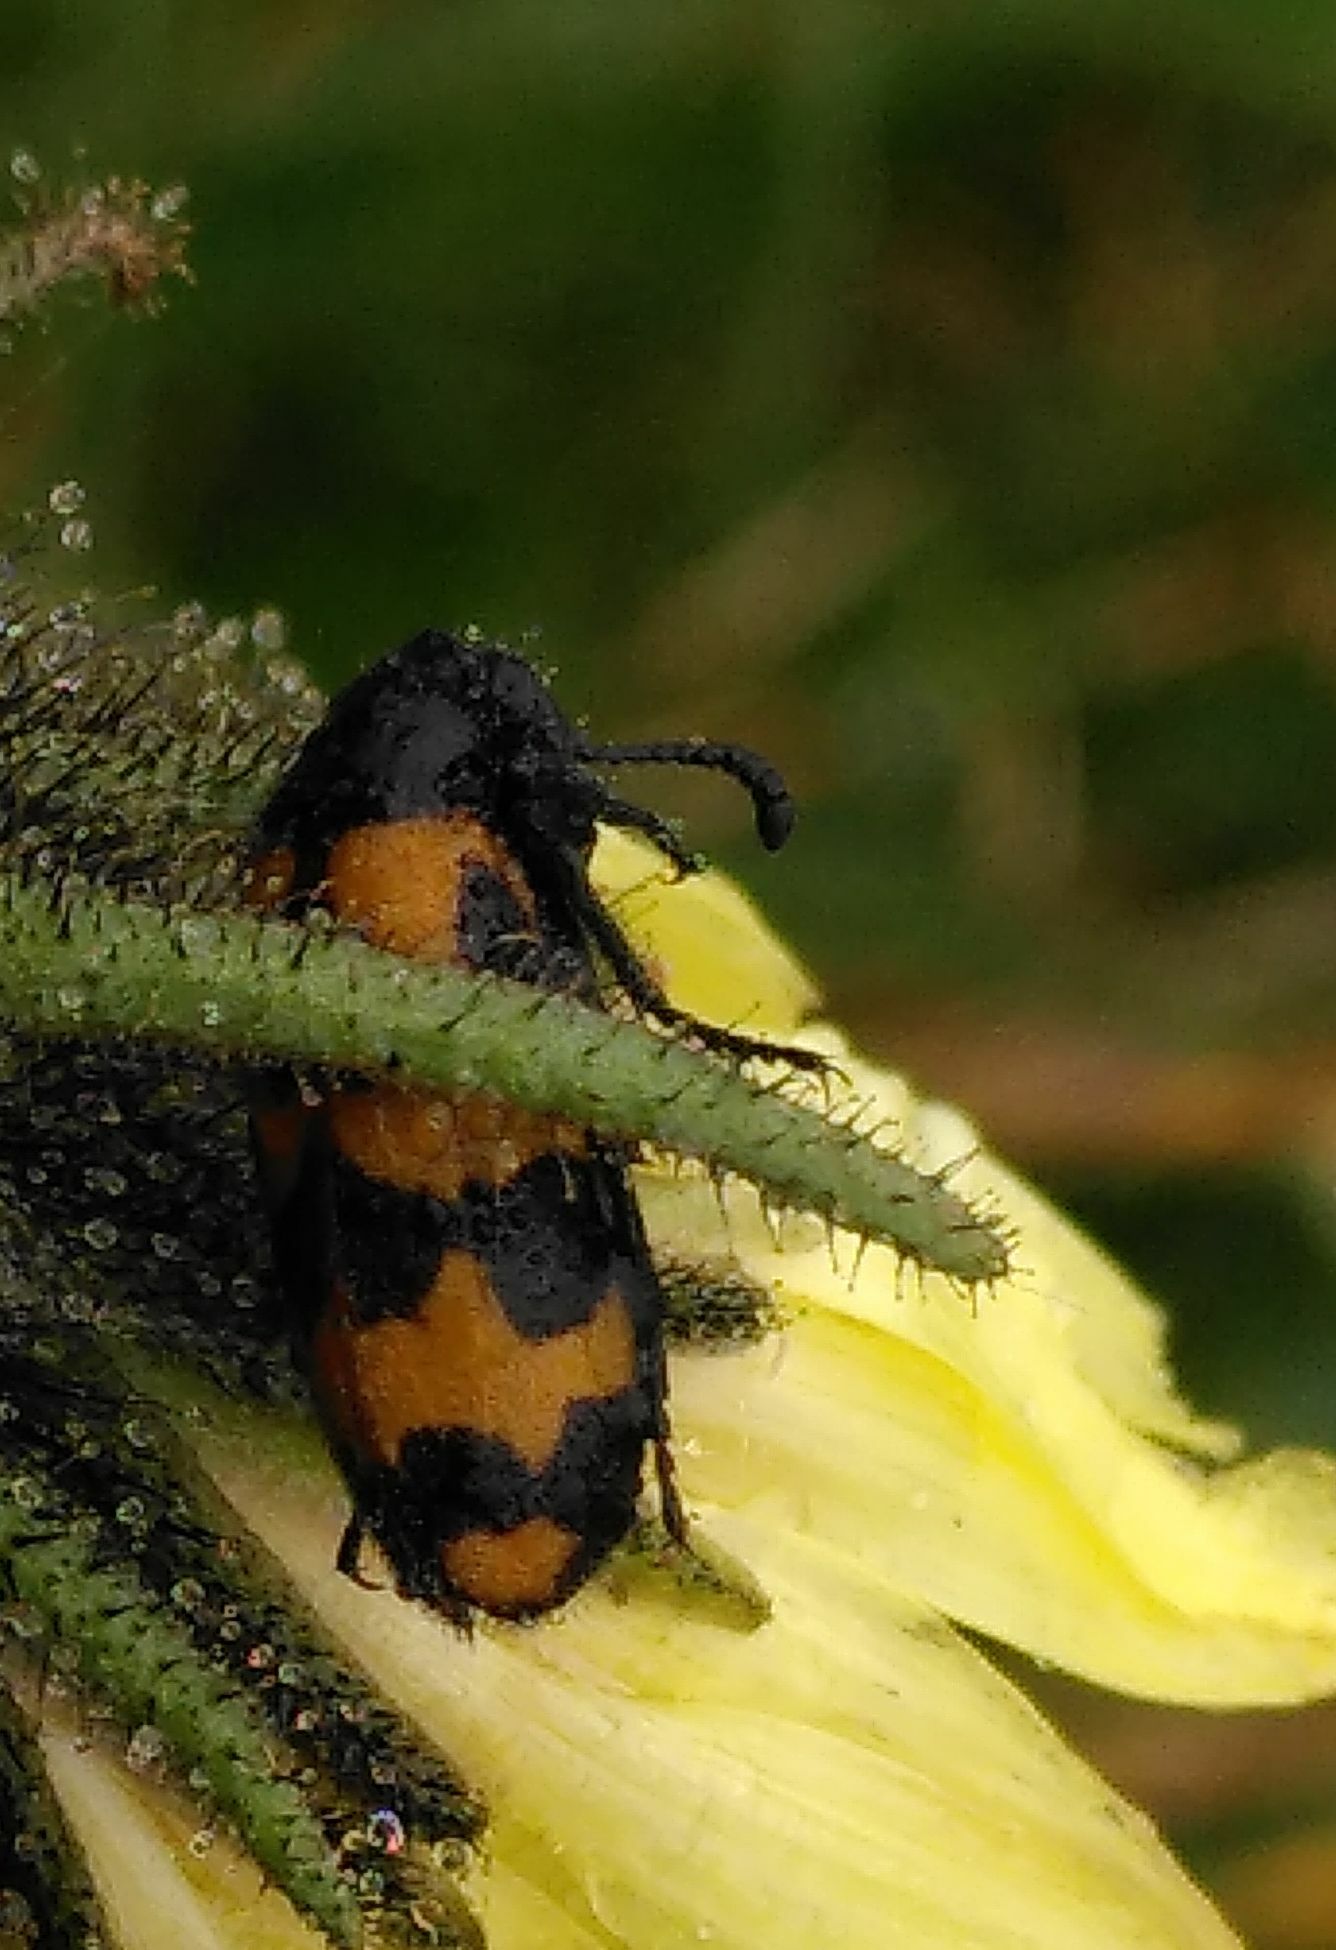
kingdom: Animalia
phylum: Arthropoda
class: Insecta
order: Coleoptera
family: Meloidae
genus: Mylabris
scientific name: Mylabris flexuosa
